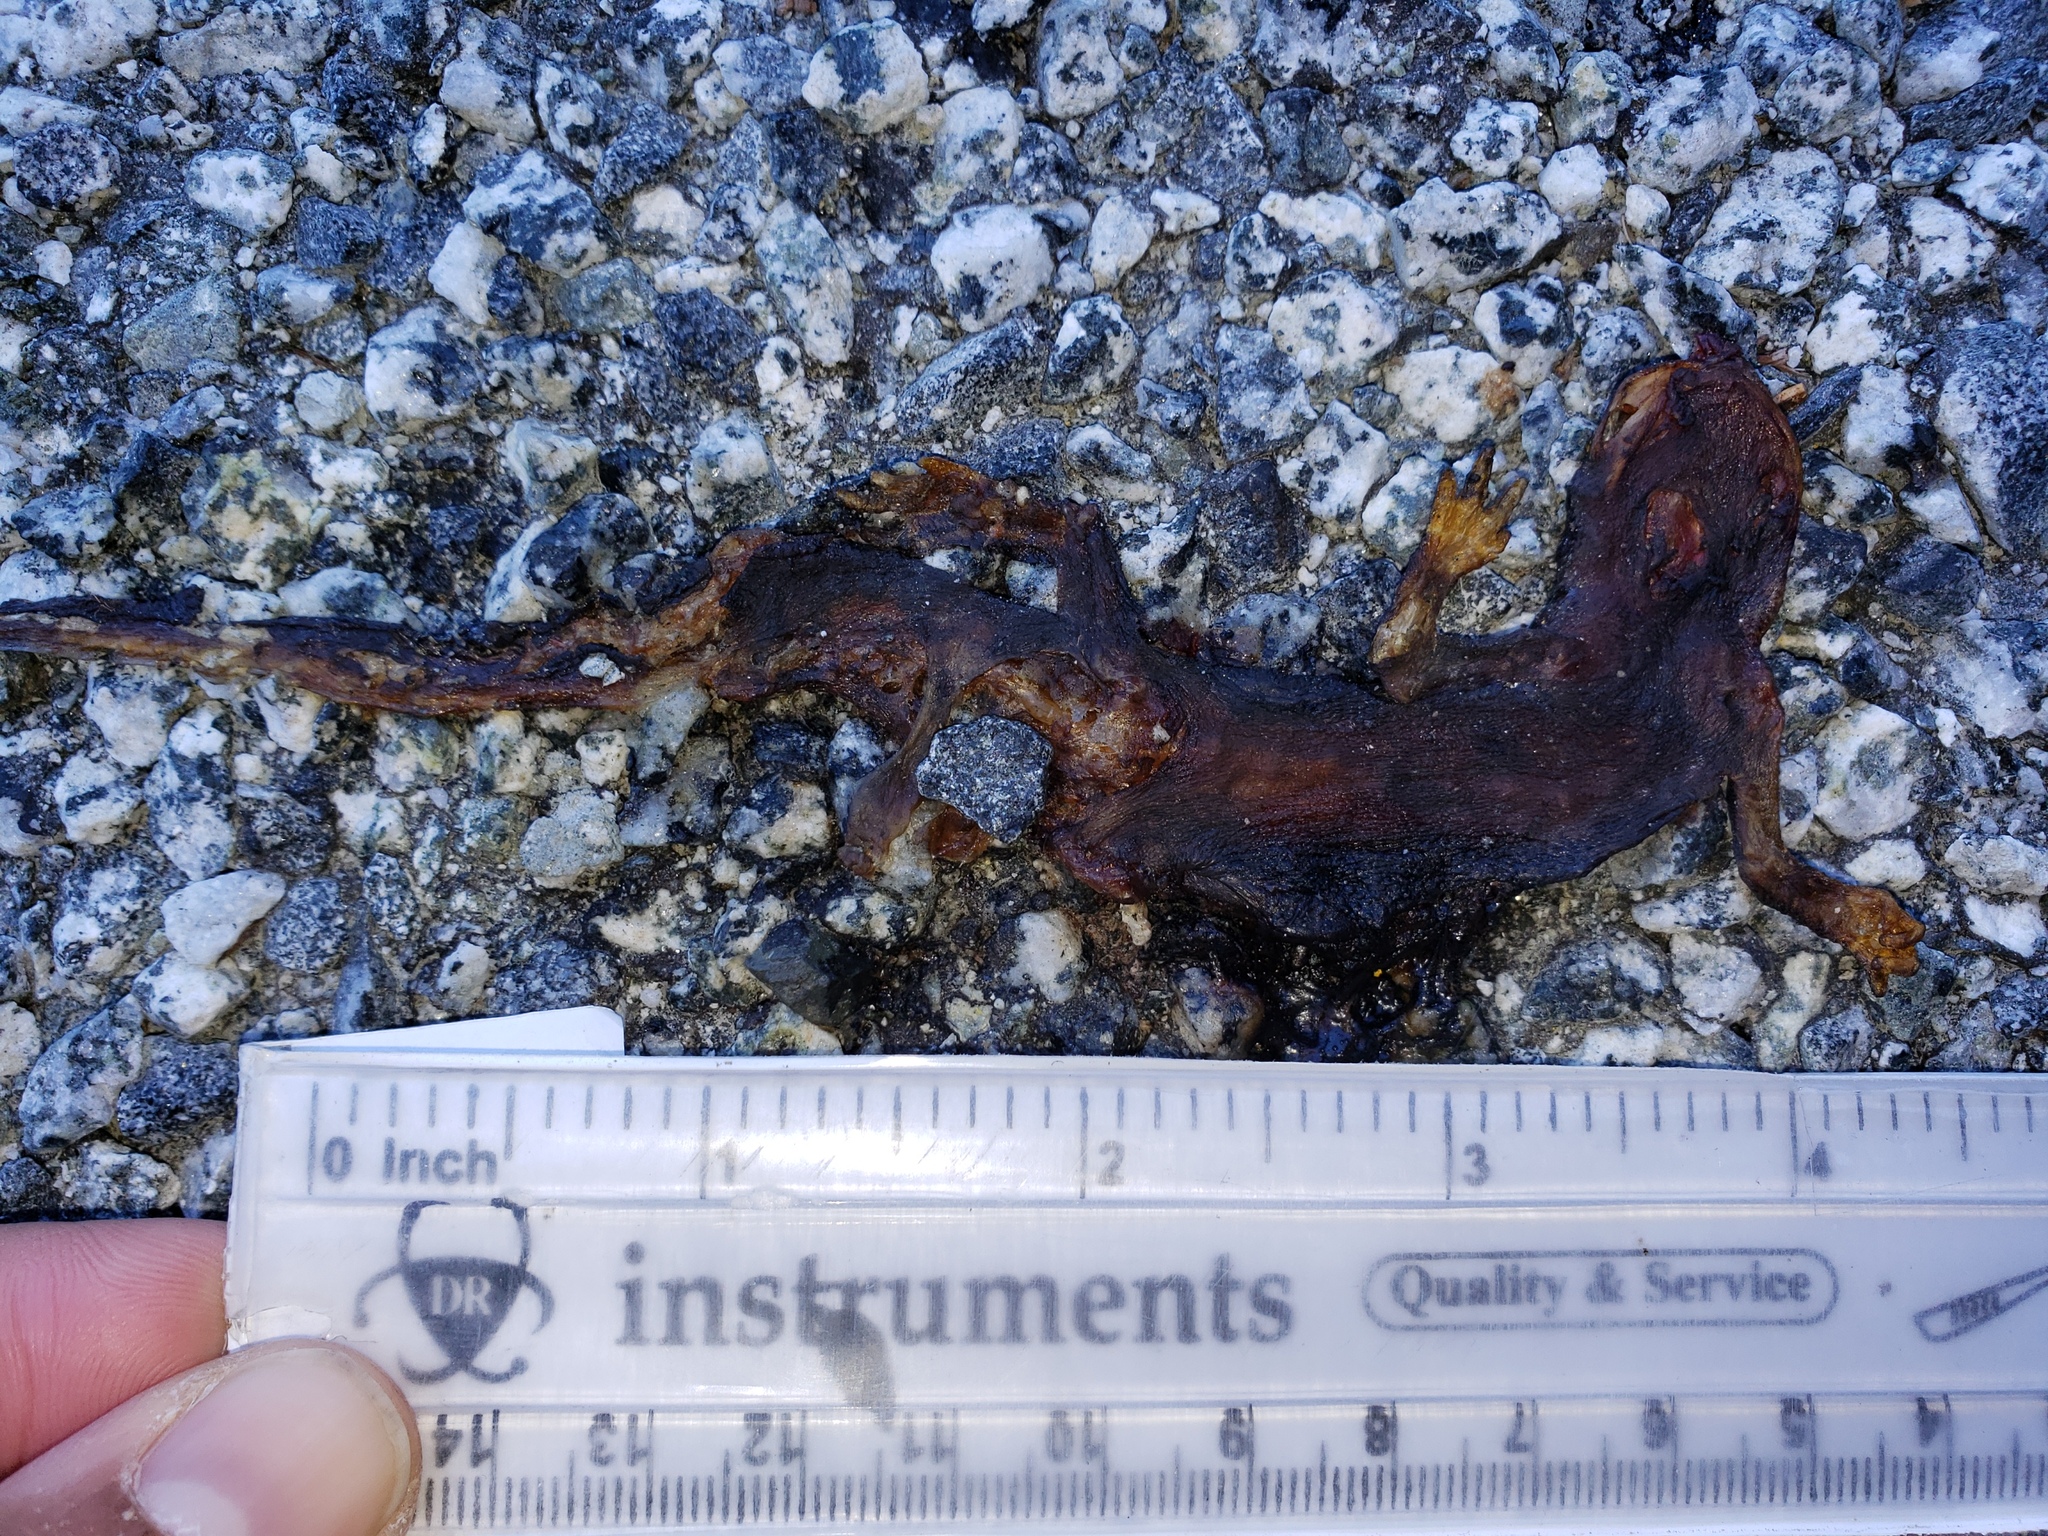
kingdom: Animalia
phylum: Chordata
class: Amphibia
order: Caudata
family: Salamandridae
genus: Taricha
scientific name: Taricha
